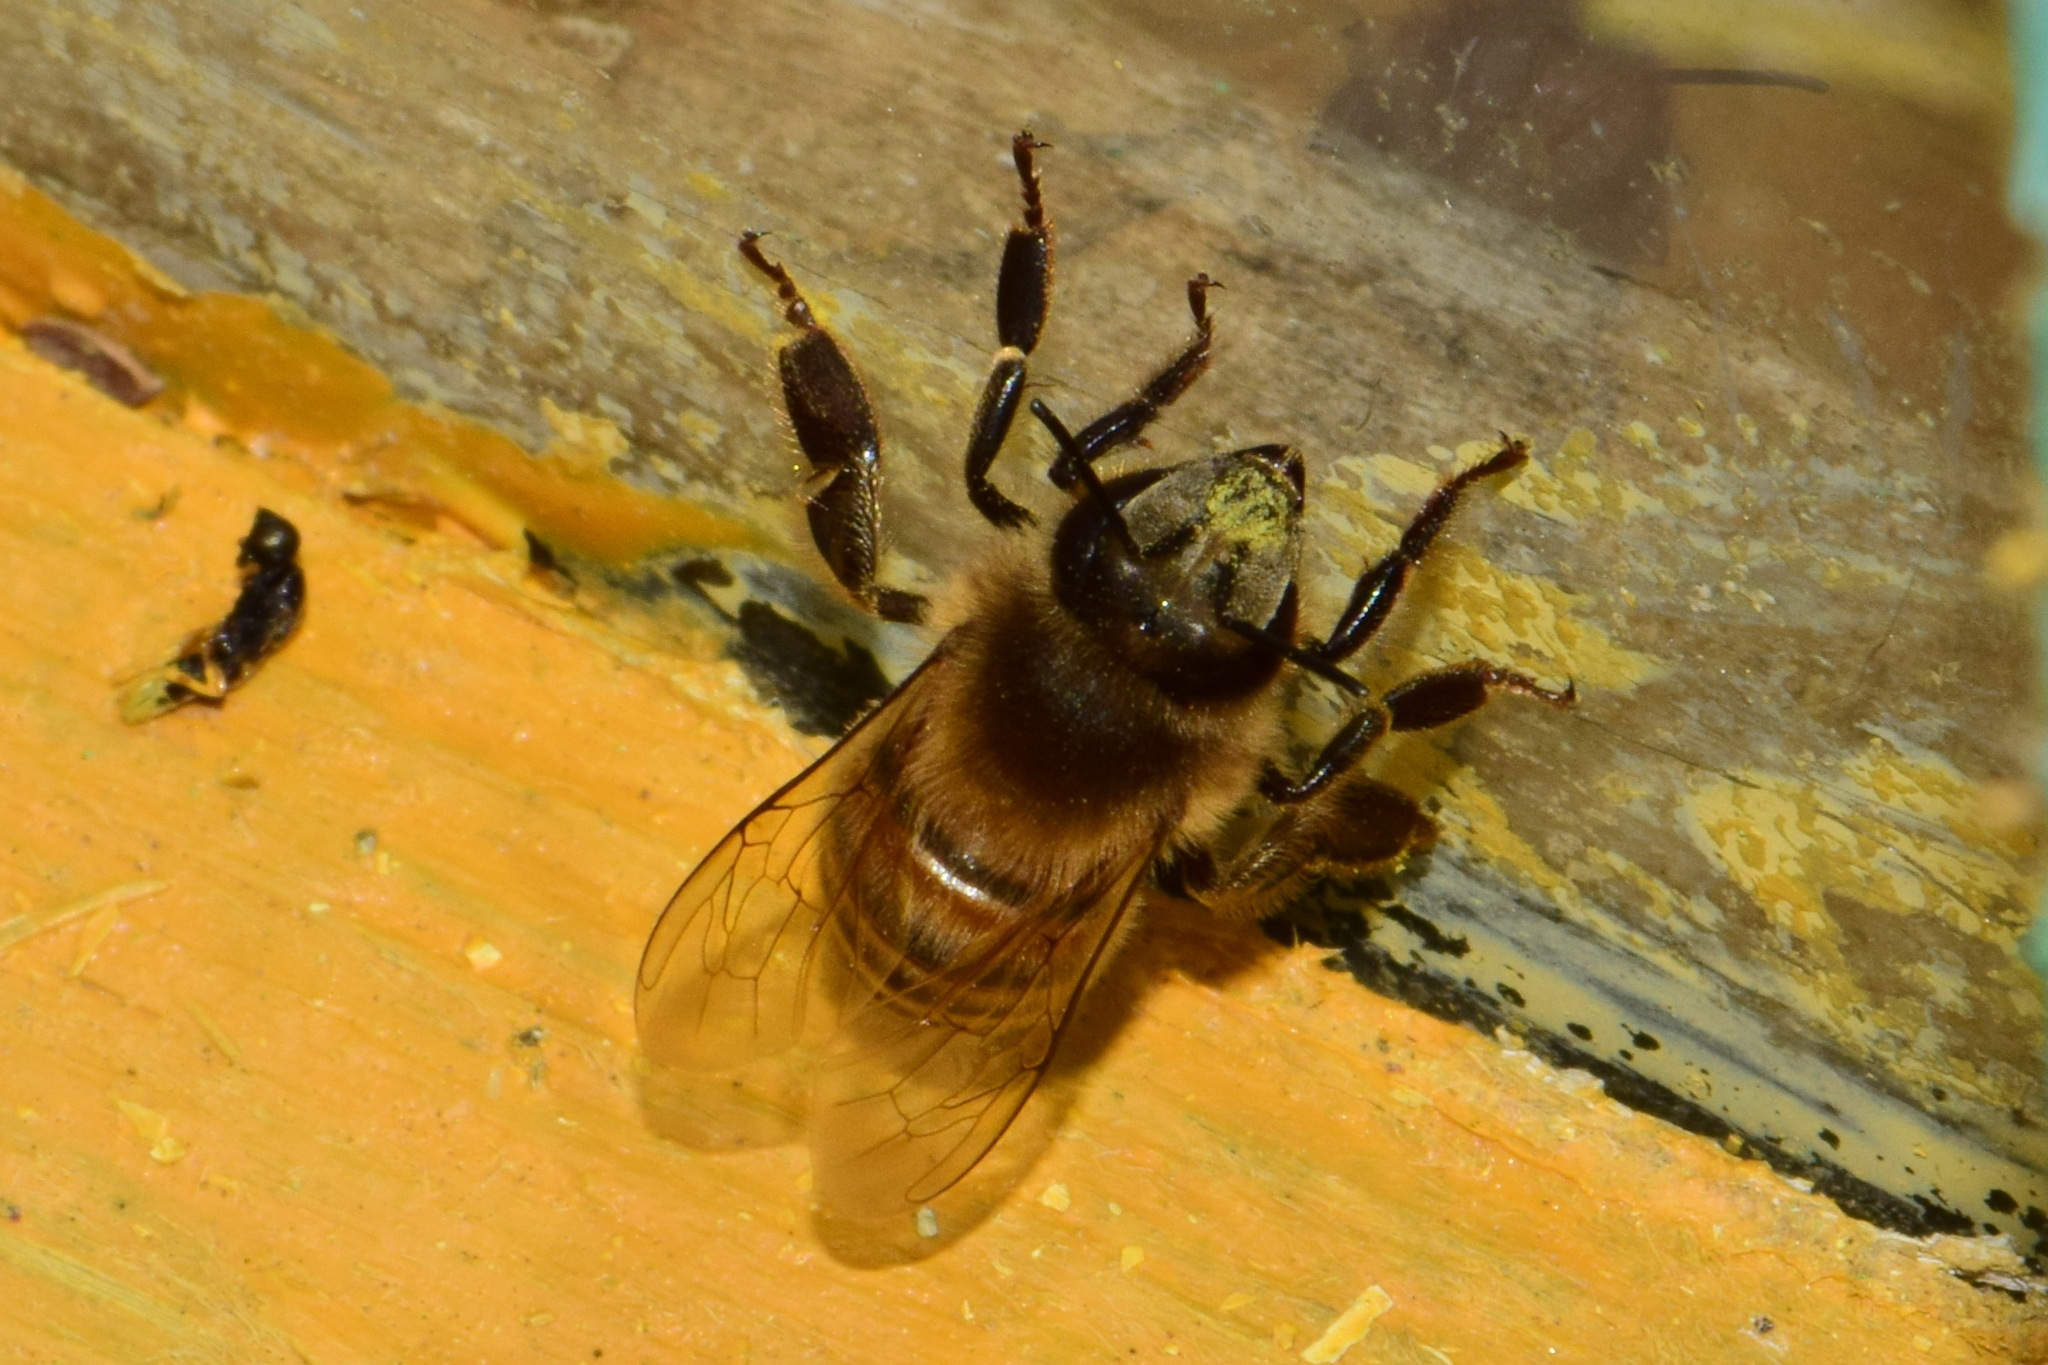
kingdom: Animalia
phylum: Arthropoda
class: Insecta
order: Hymenoptera
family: Apidae
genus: Apis
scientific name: Apis mellifera
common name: Honey bee
